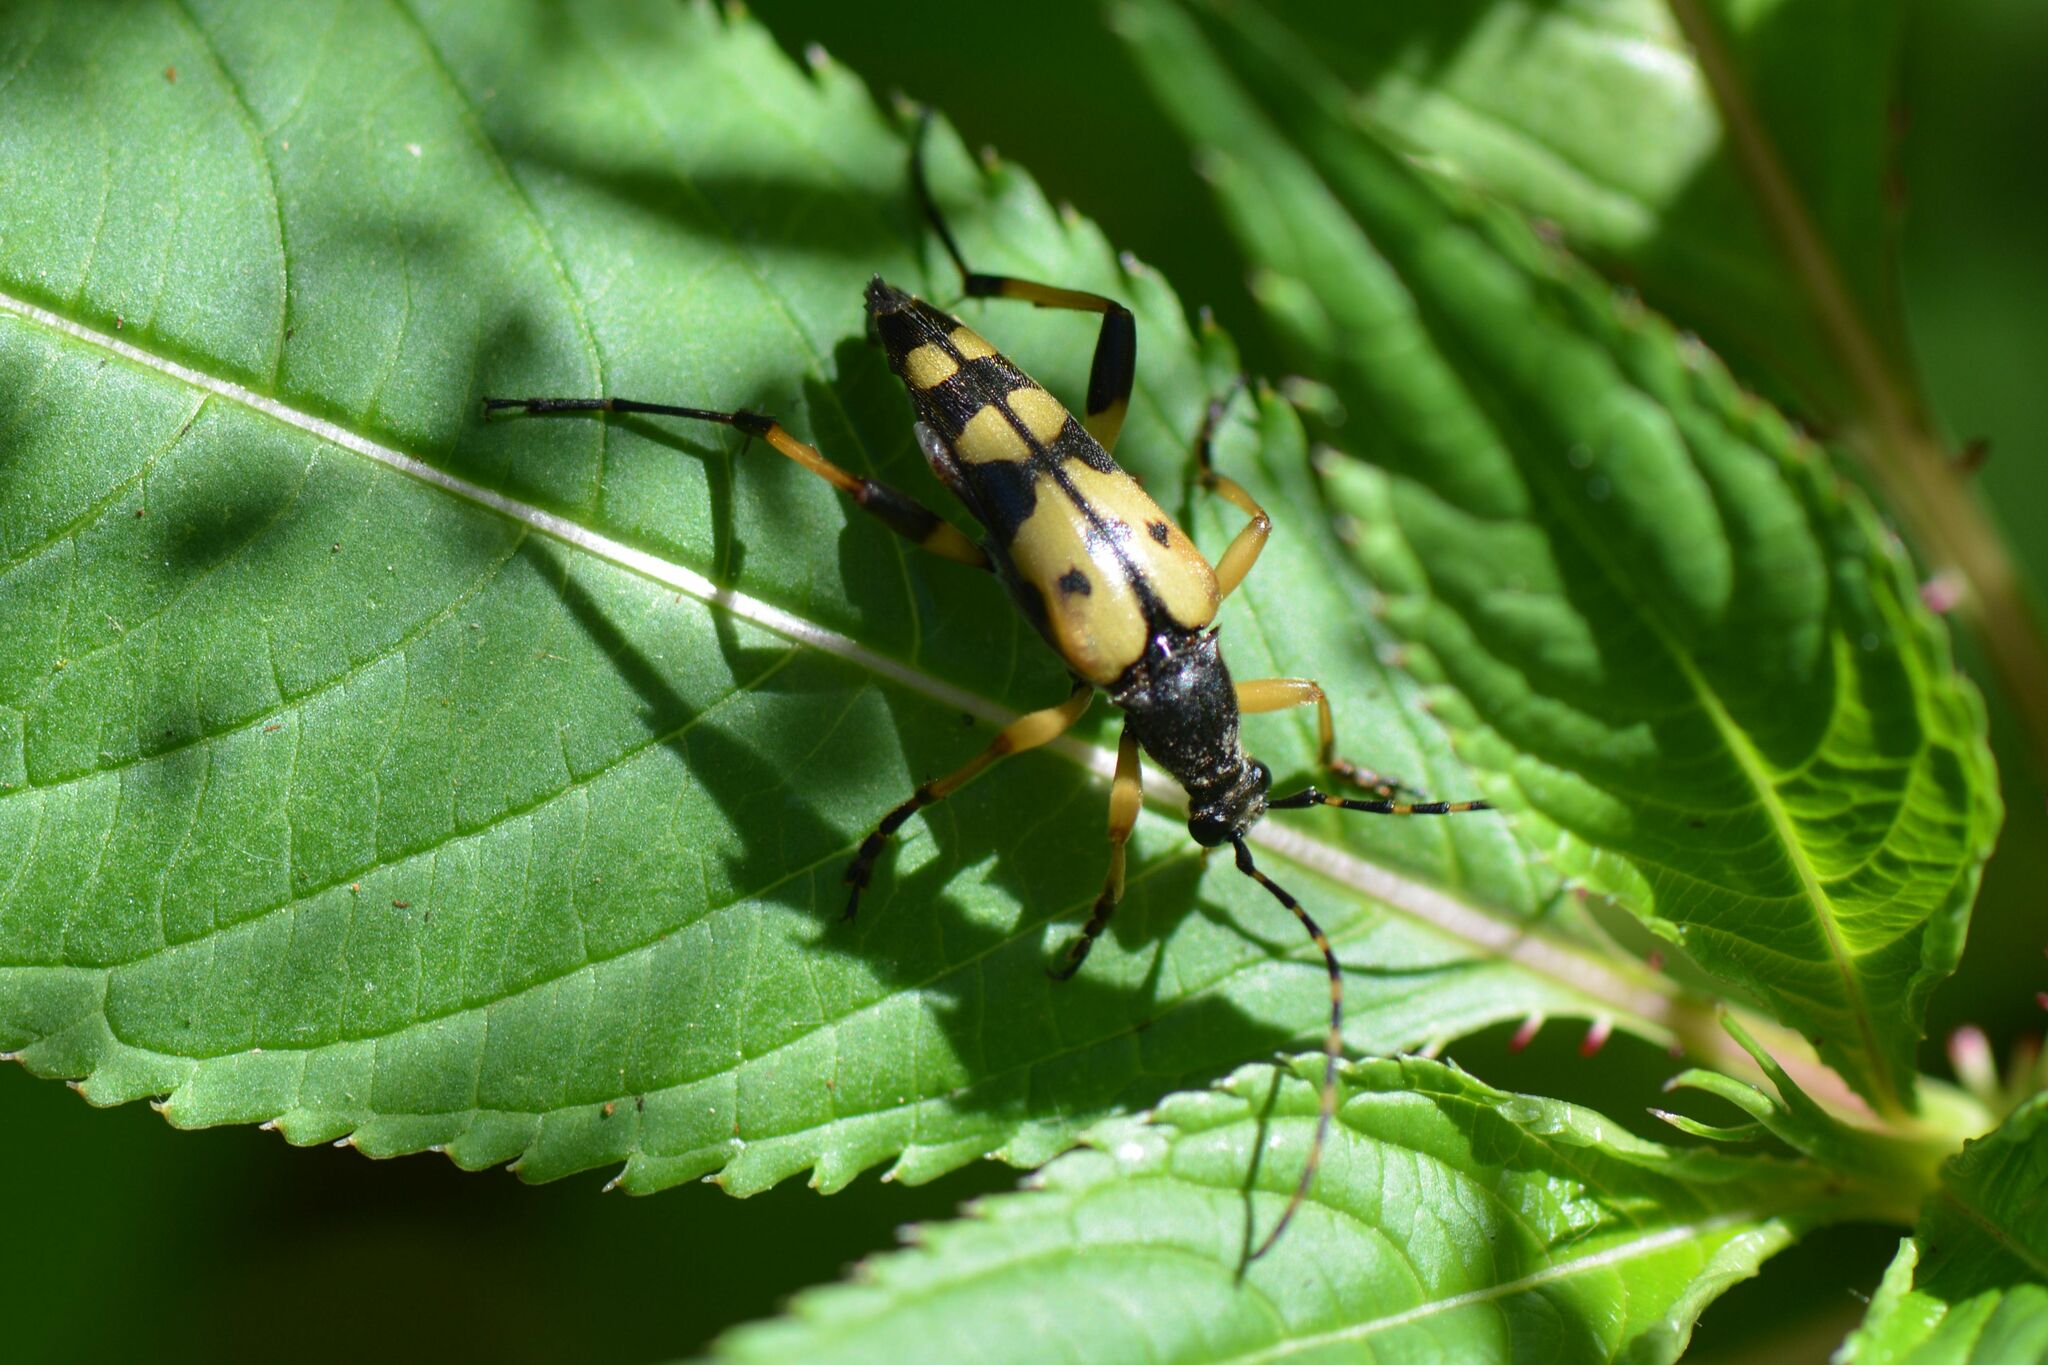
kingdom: Animalia
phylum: Arthropoda
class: Insecta
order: Coleoptera
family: Cerambycidae
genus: Rutpela
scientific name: Rutpela maculata
